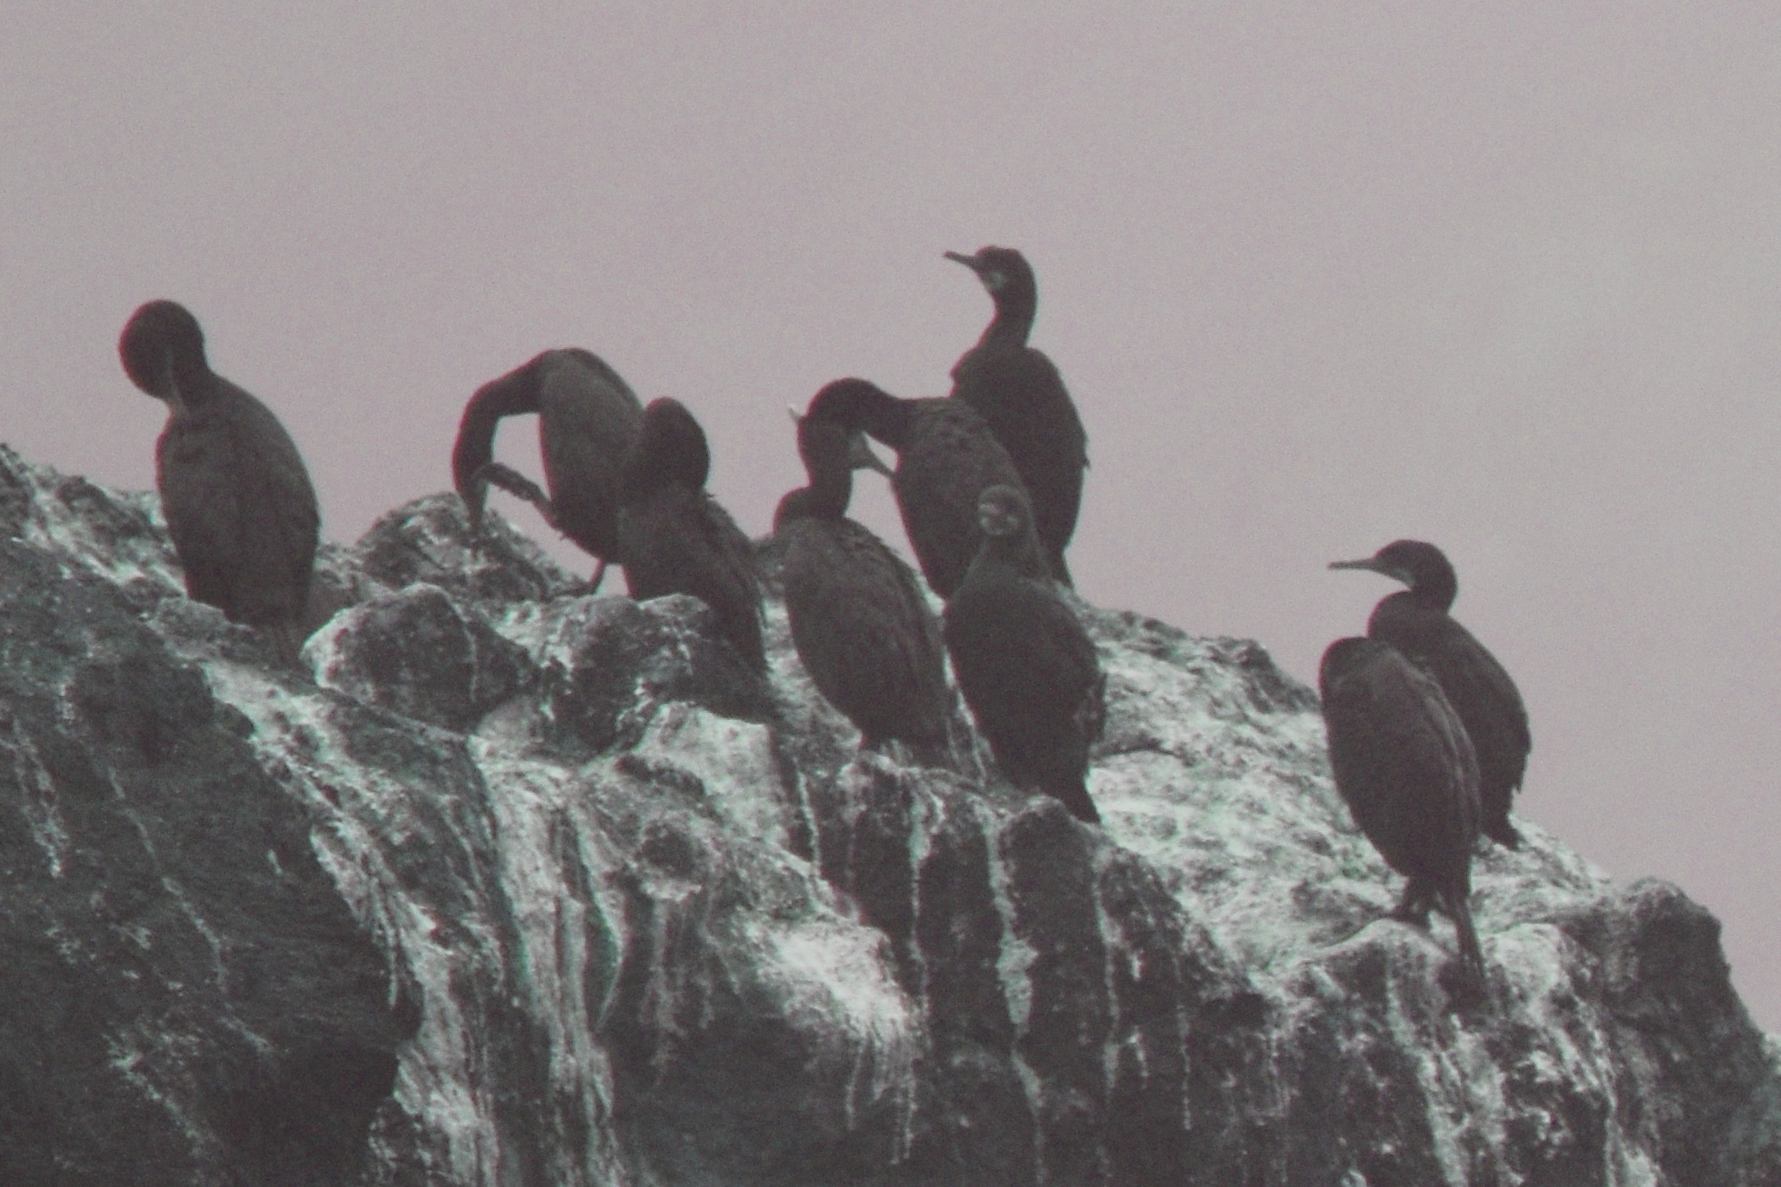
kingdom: Animalia
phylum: Chordata
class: Aves
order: Suliformes
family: Phalacrocoracidae
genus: Urile
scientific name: Urile penicillatus
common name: Brandt's cormorant
